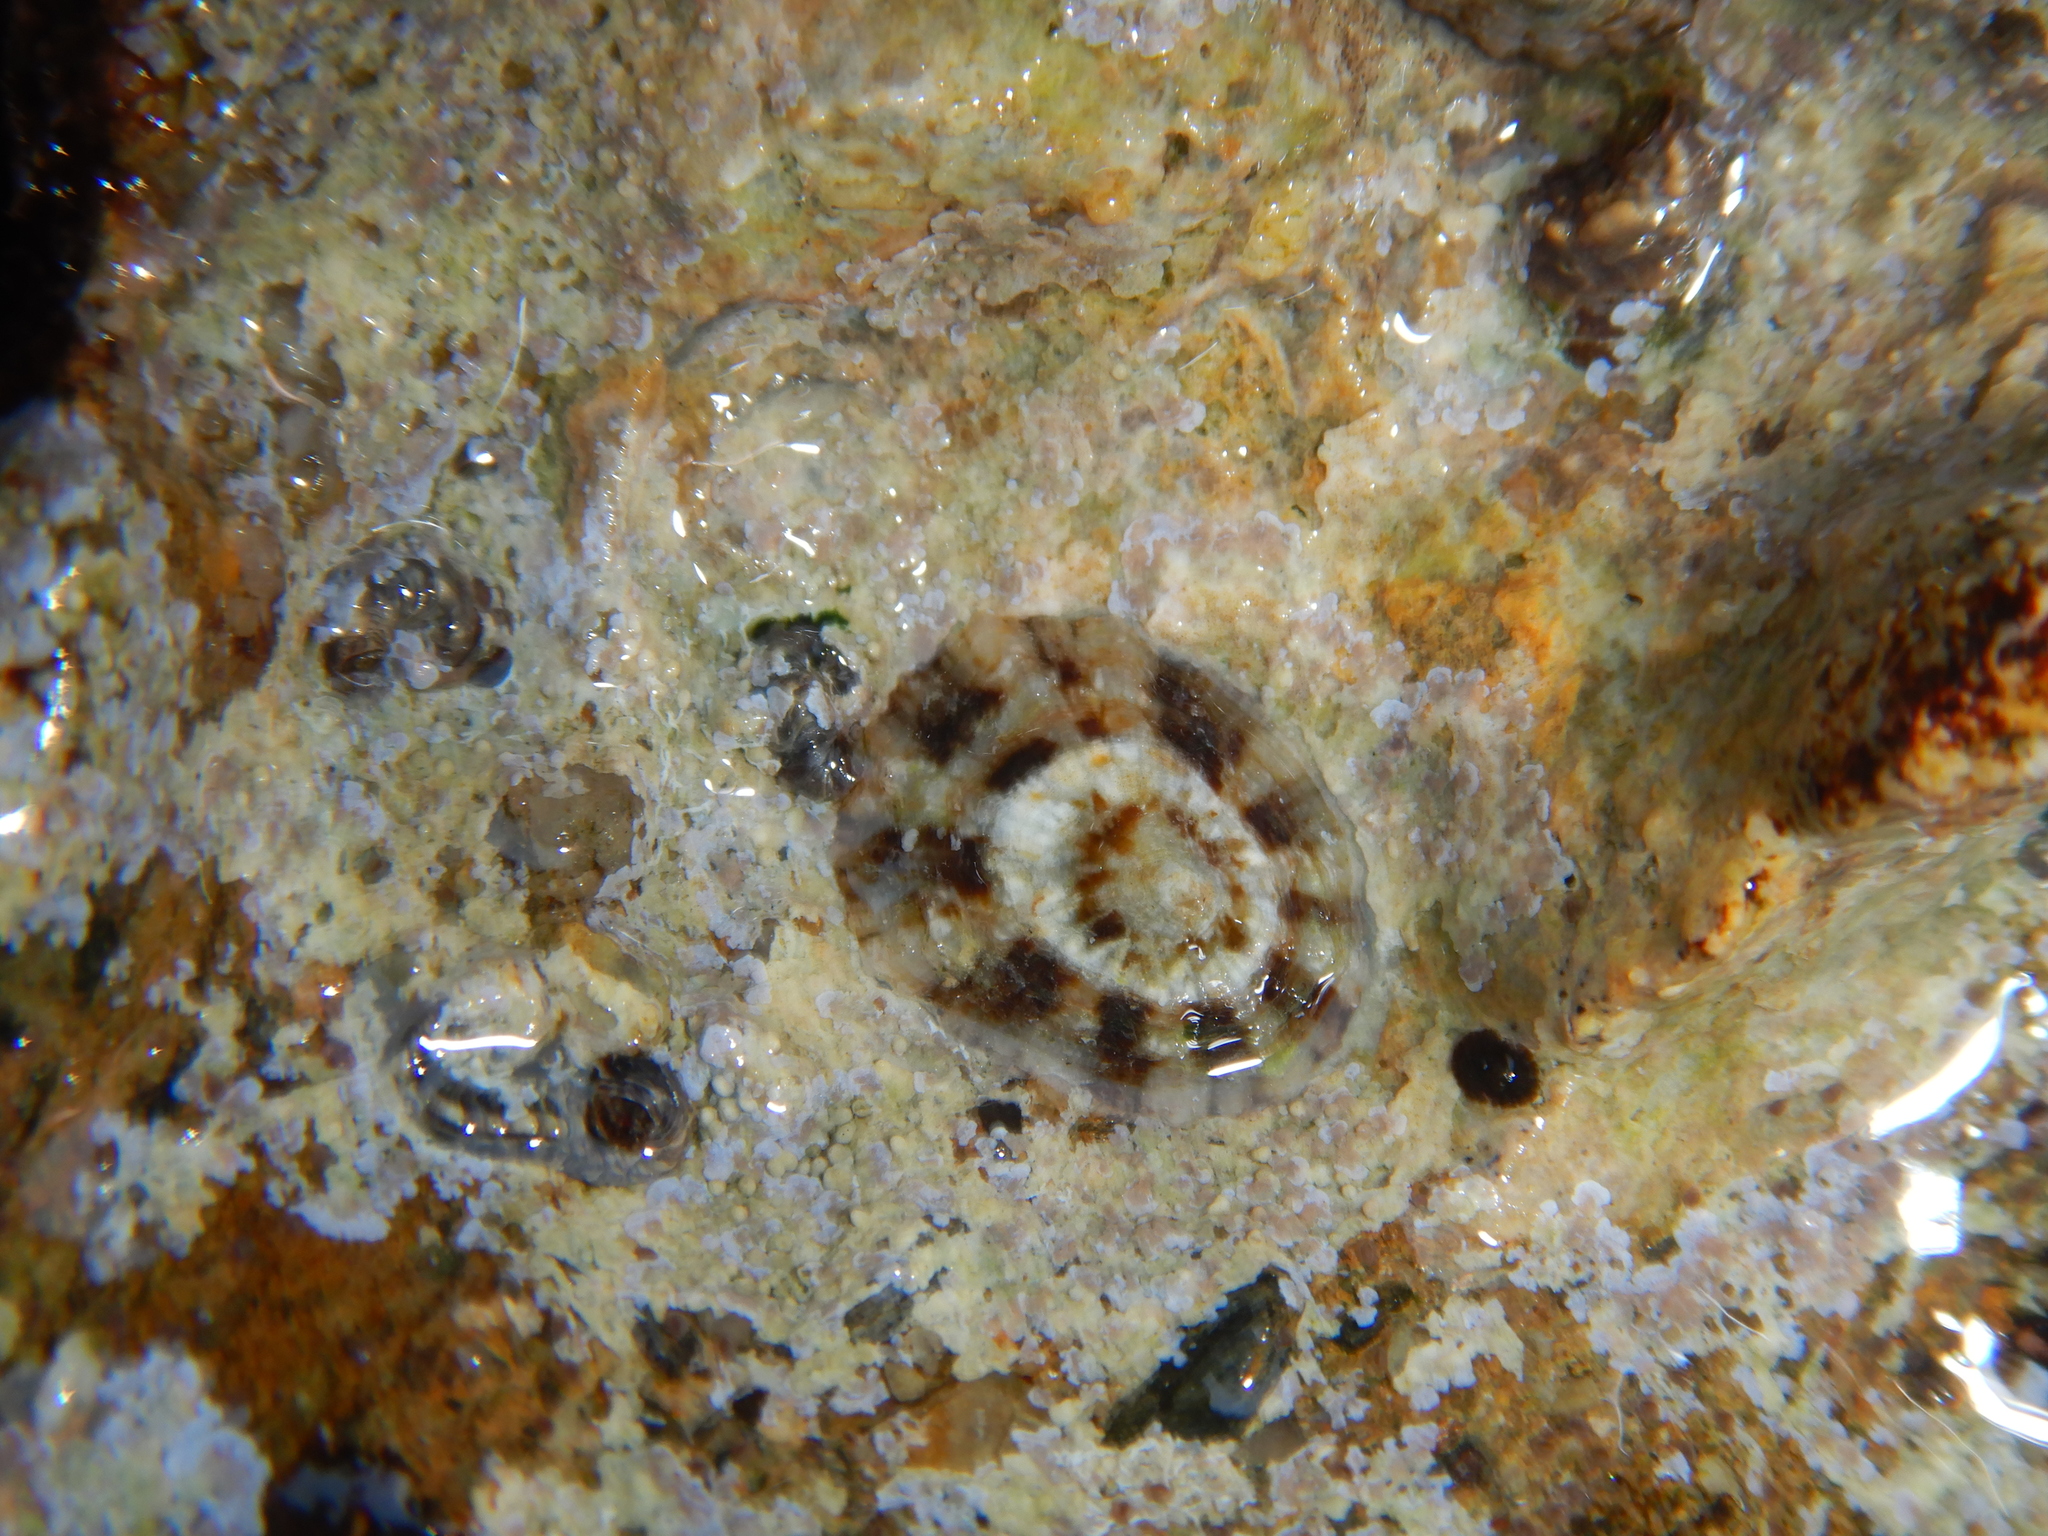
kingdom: Animalia
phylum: Mollusca
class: Gastropoda
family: Patellidae
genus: Patella
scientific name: Patella ulyssiponensis
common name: China limpet
